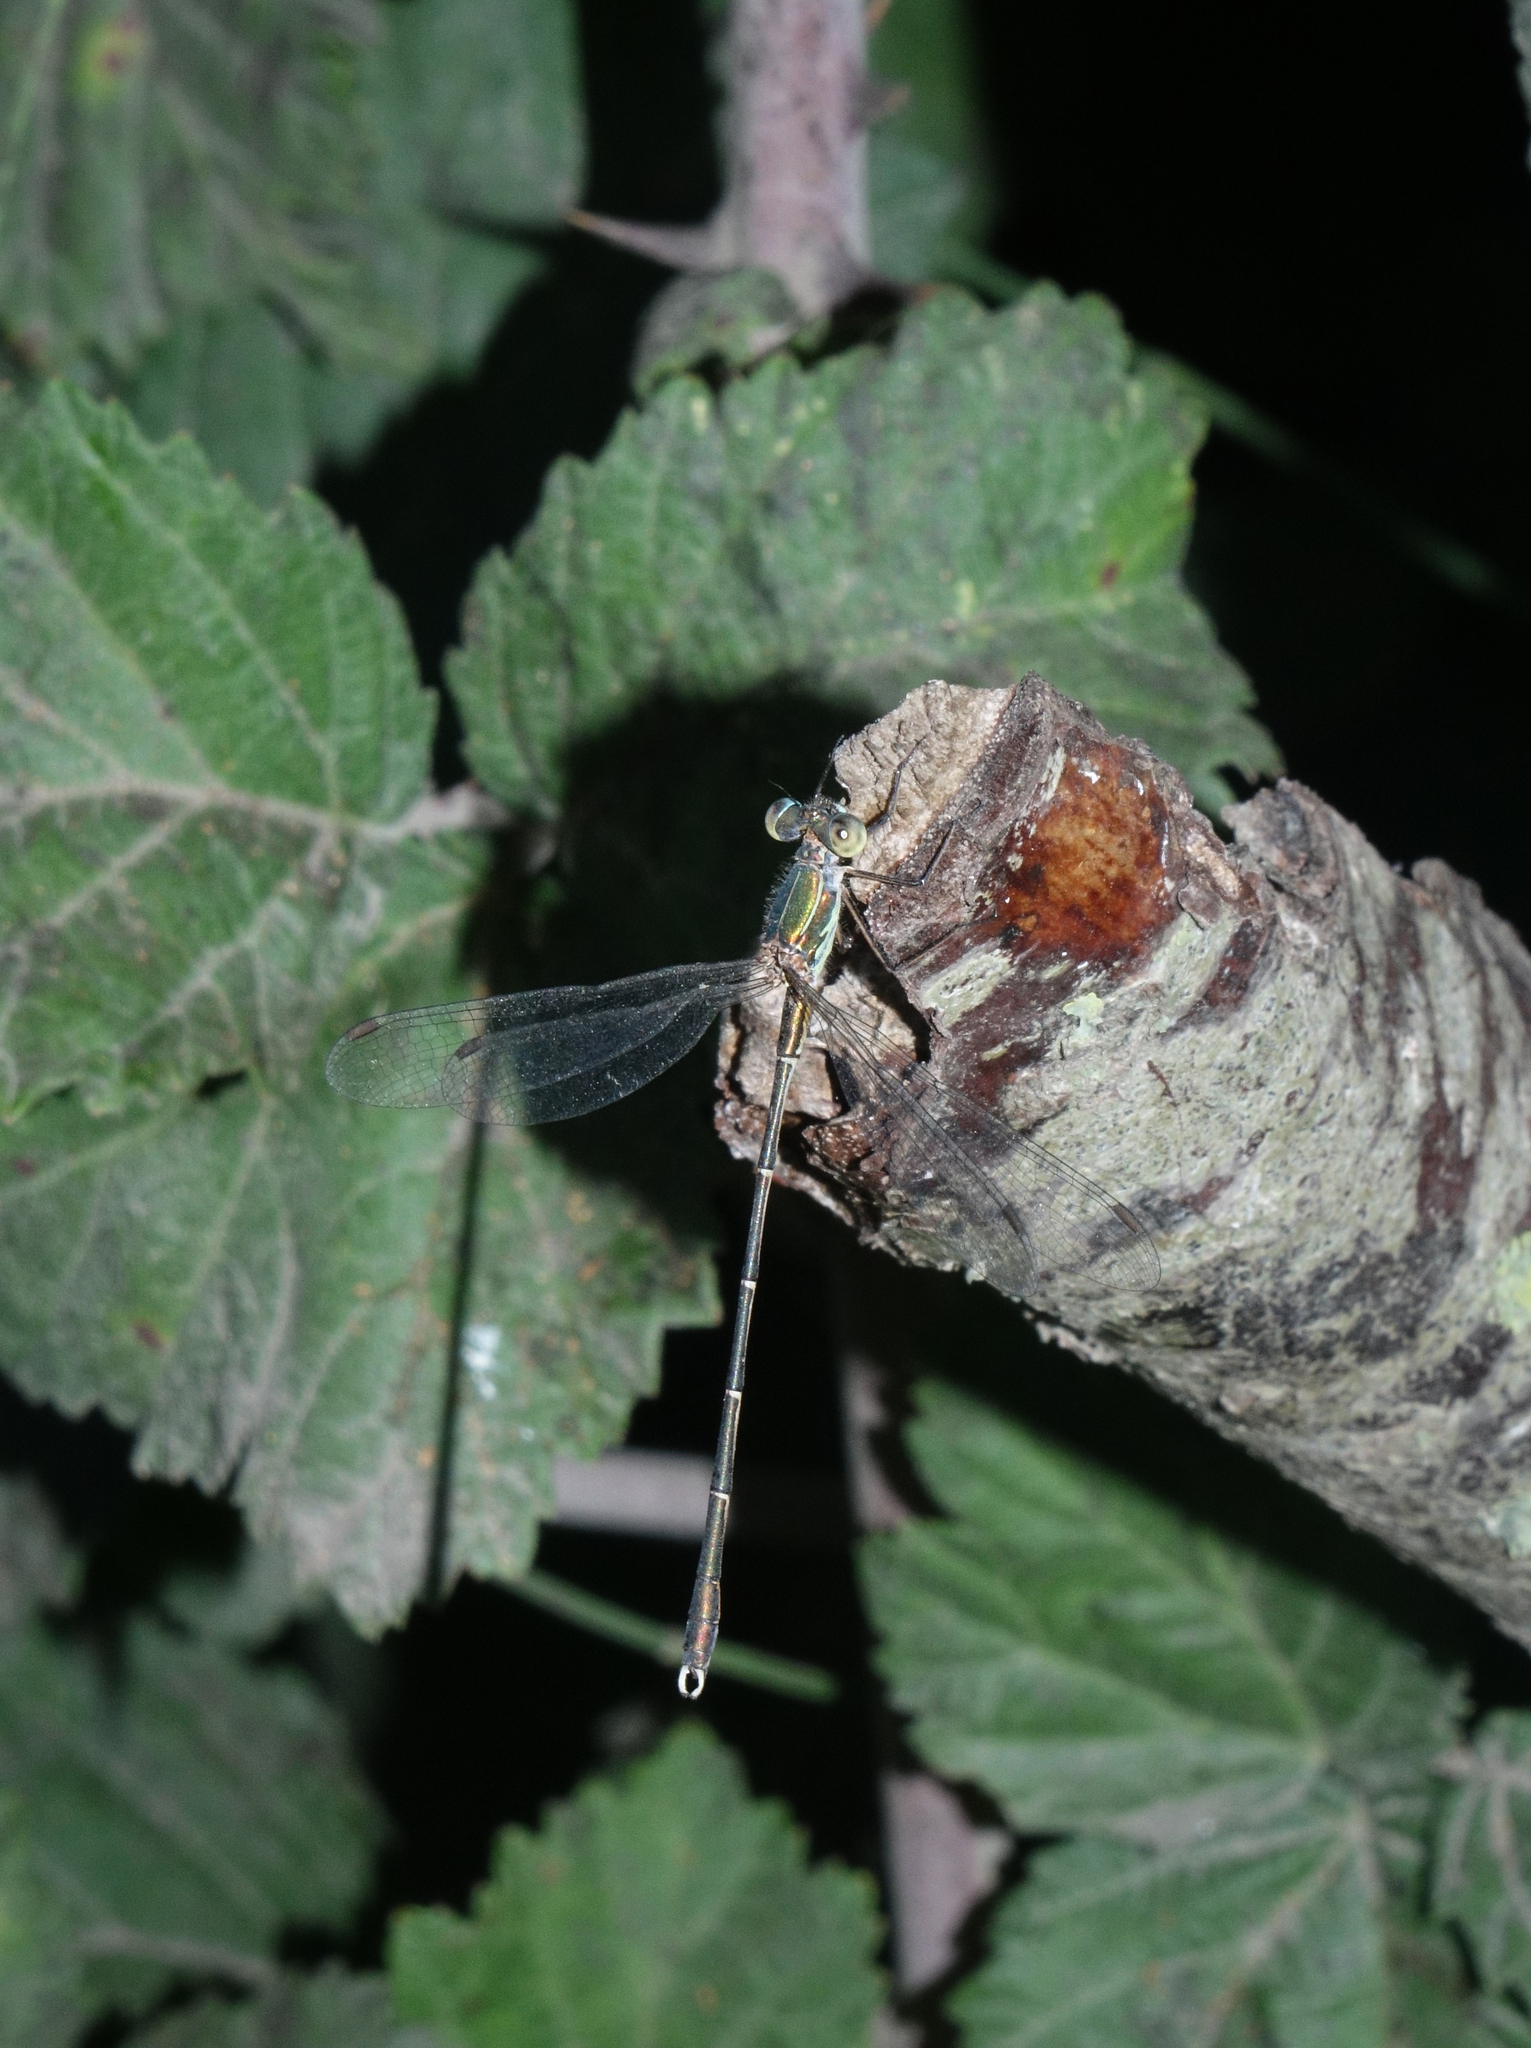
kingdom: Animalia
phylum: Arthropoda
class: Insecta
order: Odonata
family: Lestidae
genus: Chalcolestes
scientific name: Chalcolestes parvidens
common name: Eastern willow spreadwing
